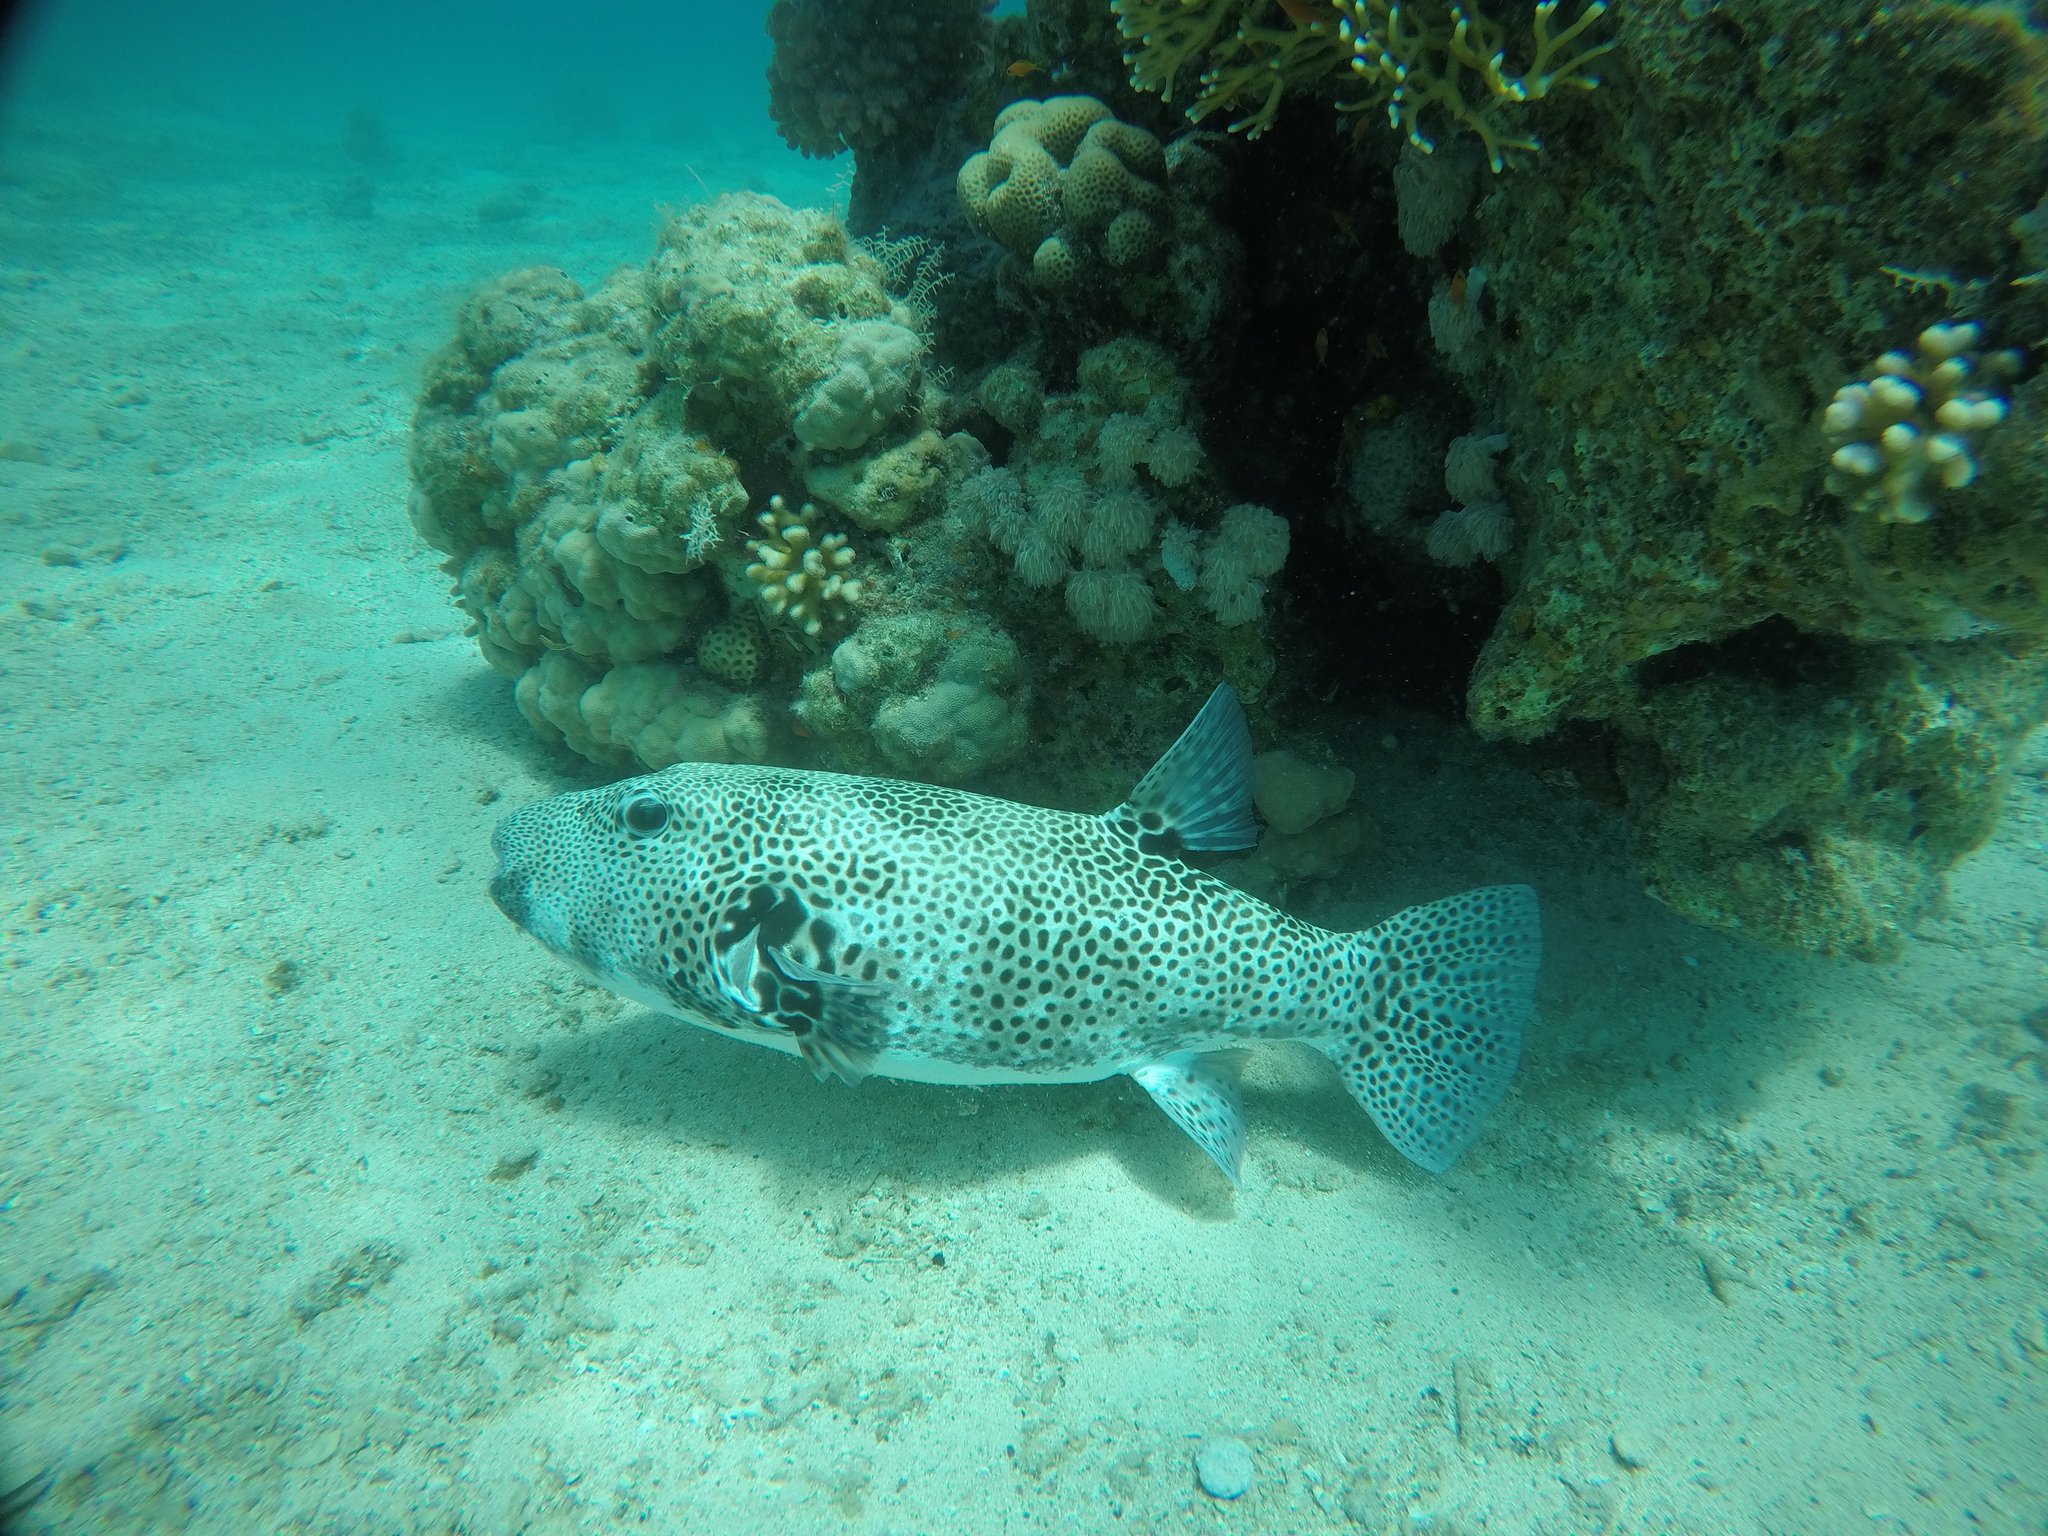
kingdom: Animalia
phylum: Chordata
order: Tetraodontiformes
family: Tetraodontidae
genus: Arothron
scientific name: Arothron stellatus
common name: Star blaasop
